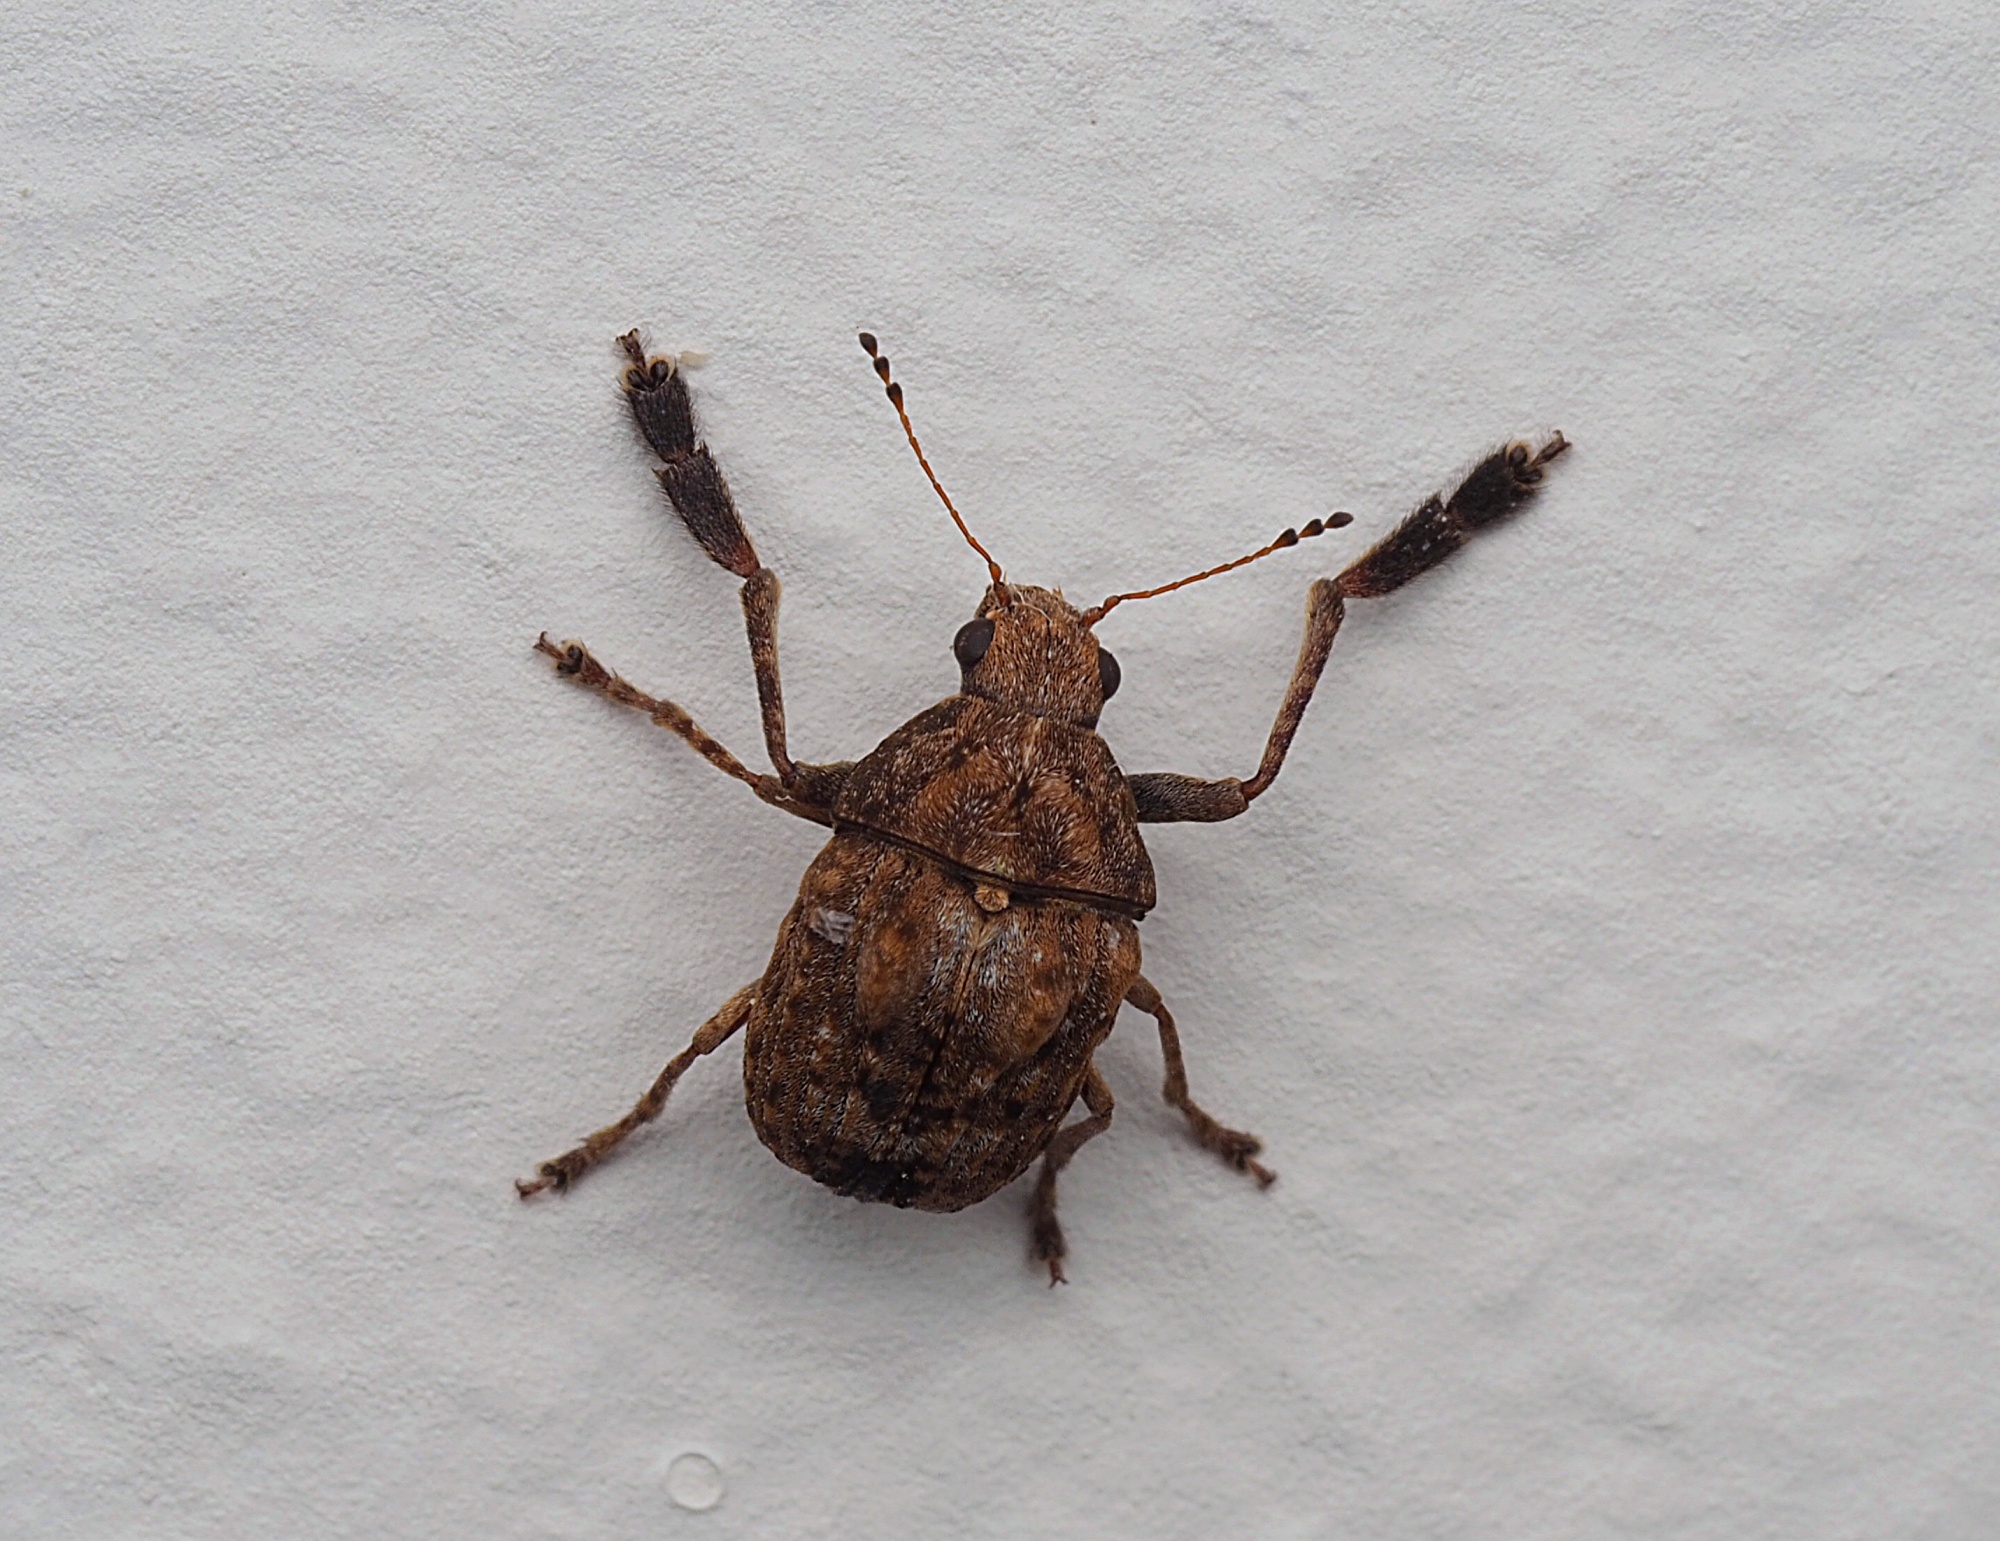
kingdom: Animalia
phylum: Arthropoda
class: Insecta
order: Coleoptera
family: Anthribidae
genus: Araecerus
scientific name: Araecerus
